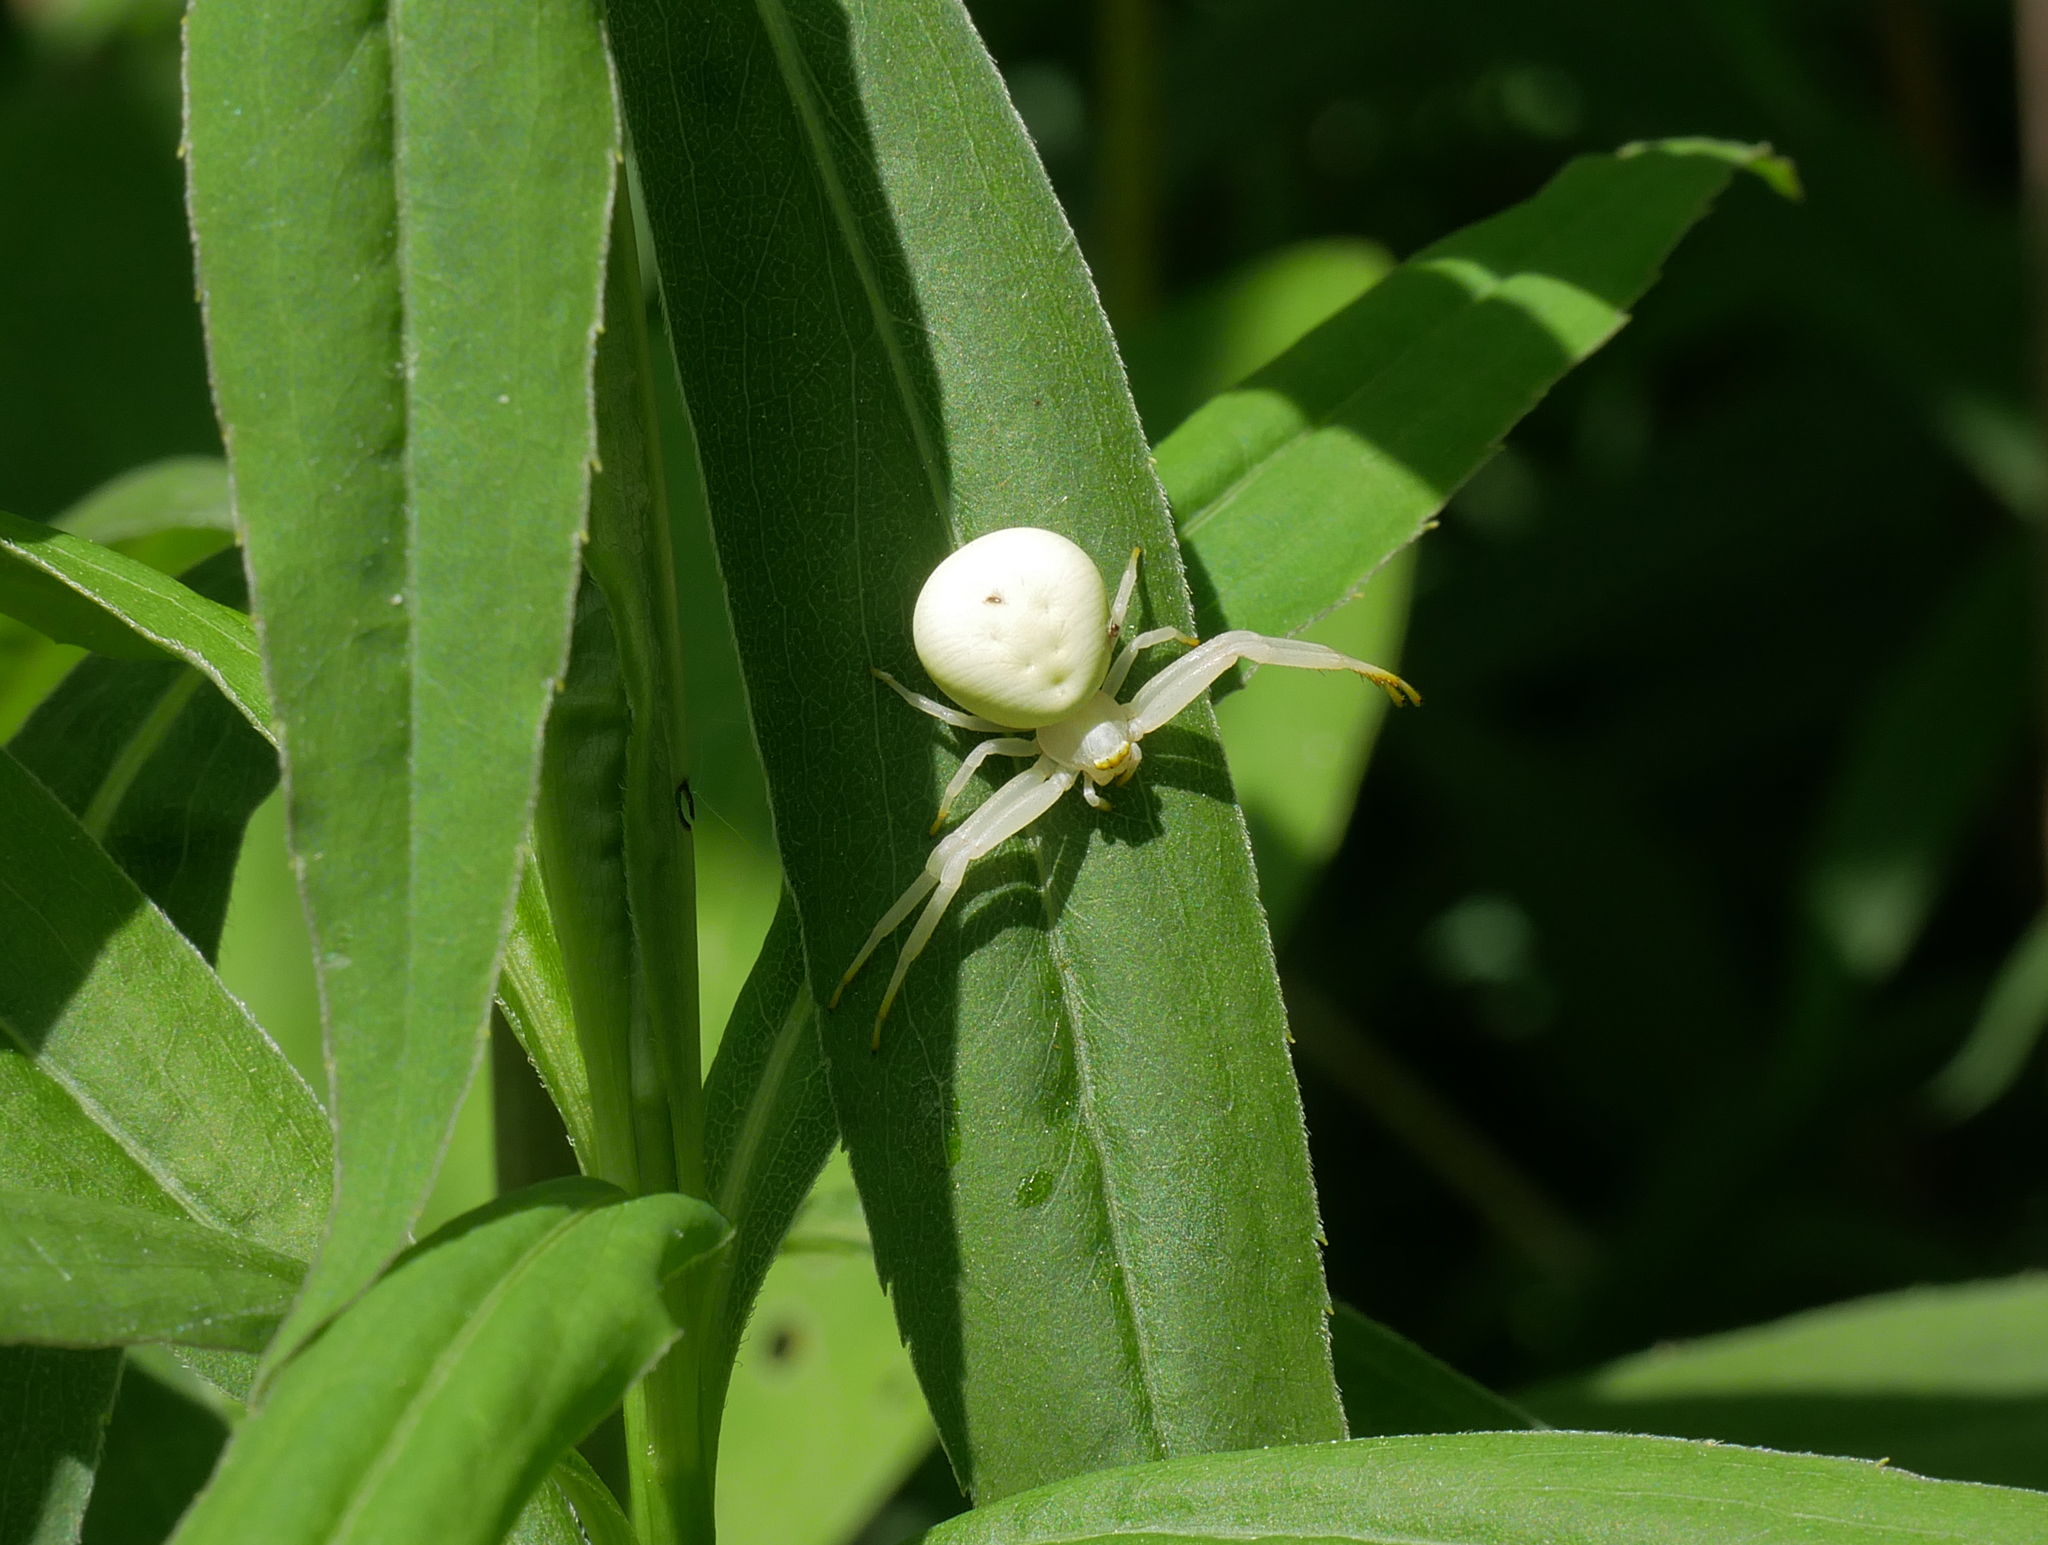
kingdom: Animalia
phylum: Arthropoda
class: Arachnida
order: Araneae
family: Thomisidae
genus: Misumena
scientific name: Misumena vatia
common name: Goldenrod crab spider
